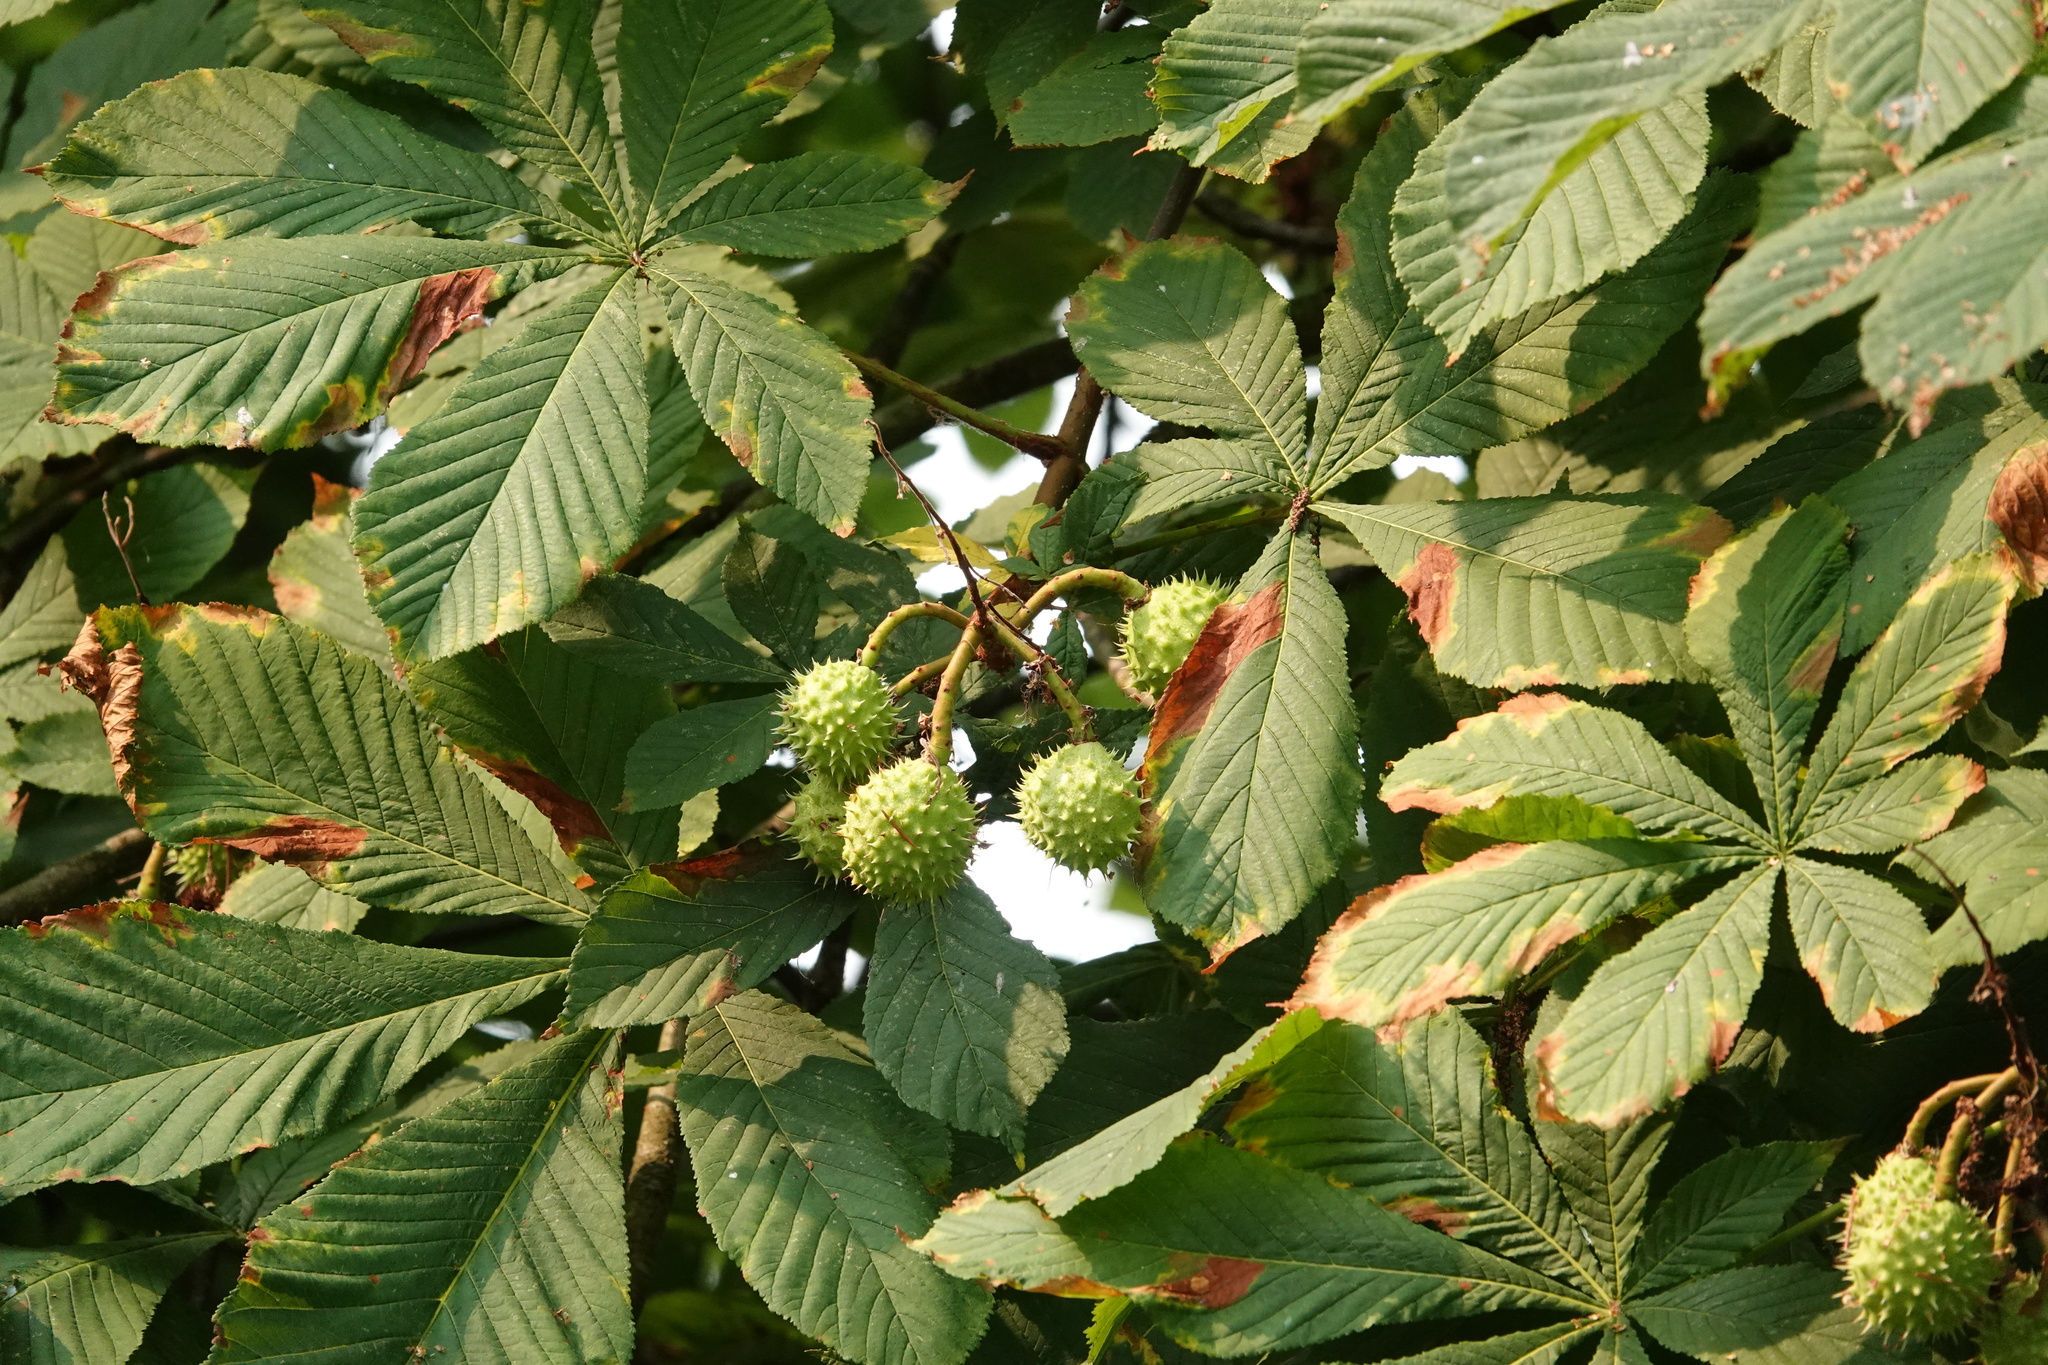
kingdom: Plantae
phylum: Tracheophyta
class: Magnoliopsida
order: Sapindales
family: Sapindaceae
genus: Aesculus
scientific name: Aesculus hippocastanum
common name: Horse-chestnut
